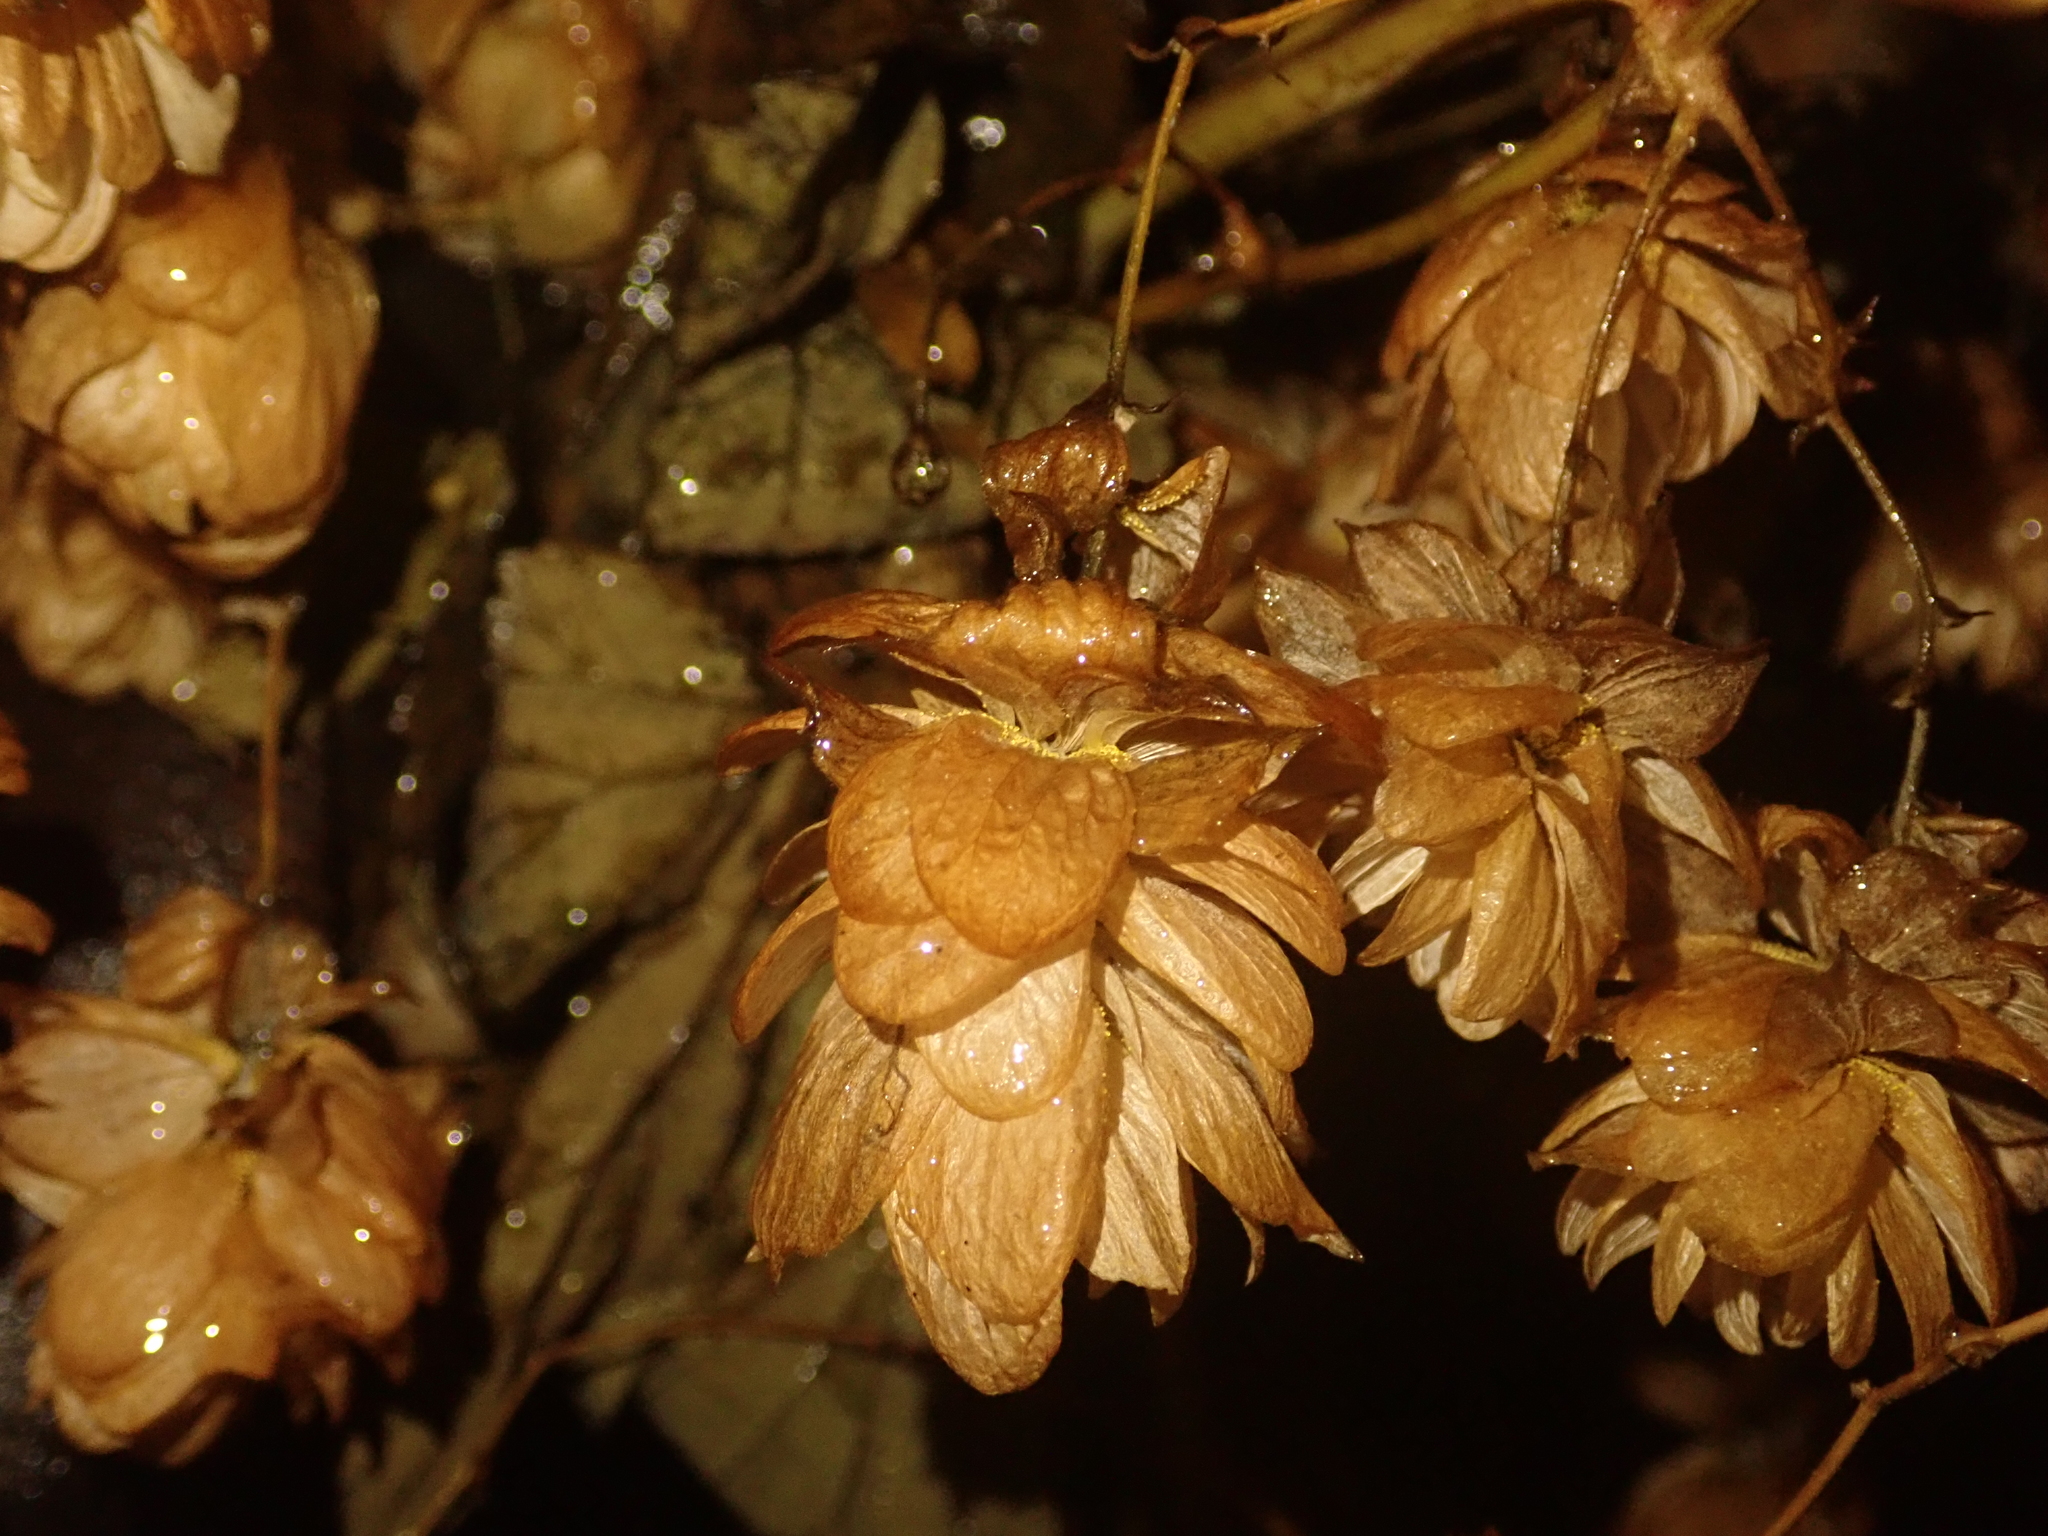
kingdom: Plantae
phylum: Tracheophyta
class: Magnoliopsida
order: Rosales
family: Cannabaceae
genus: Humulus
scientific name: Humulus lupulus
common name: Hop
